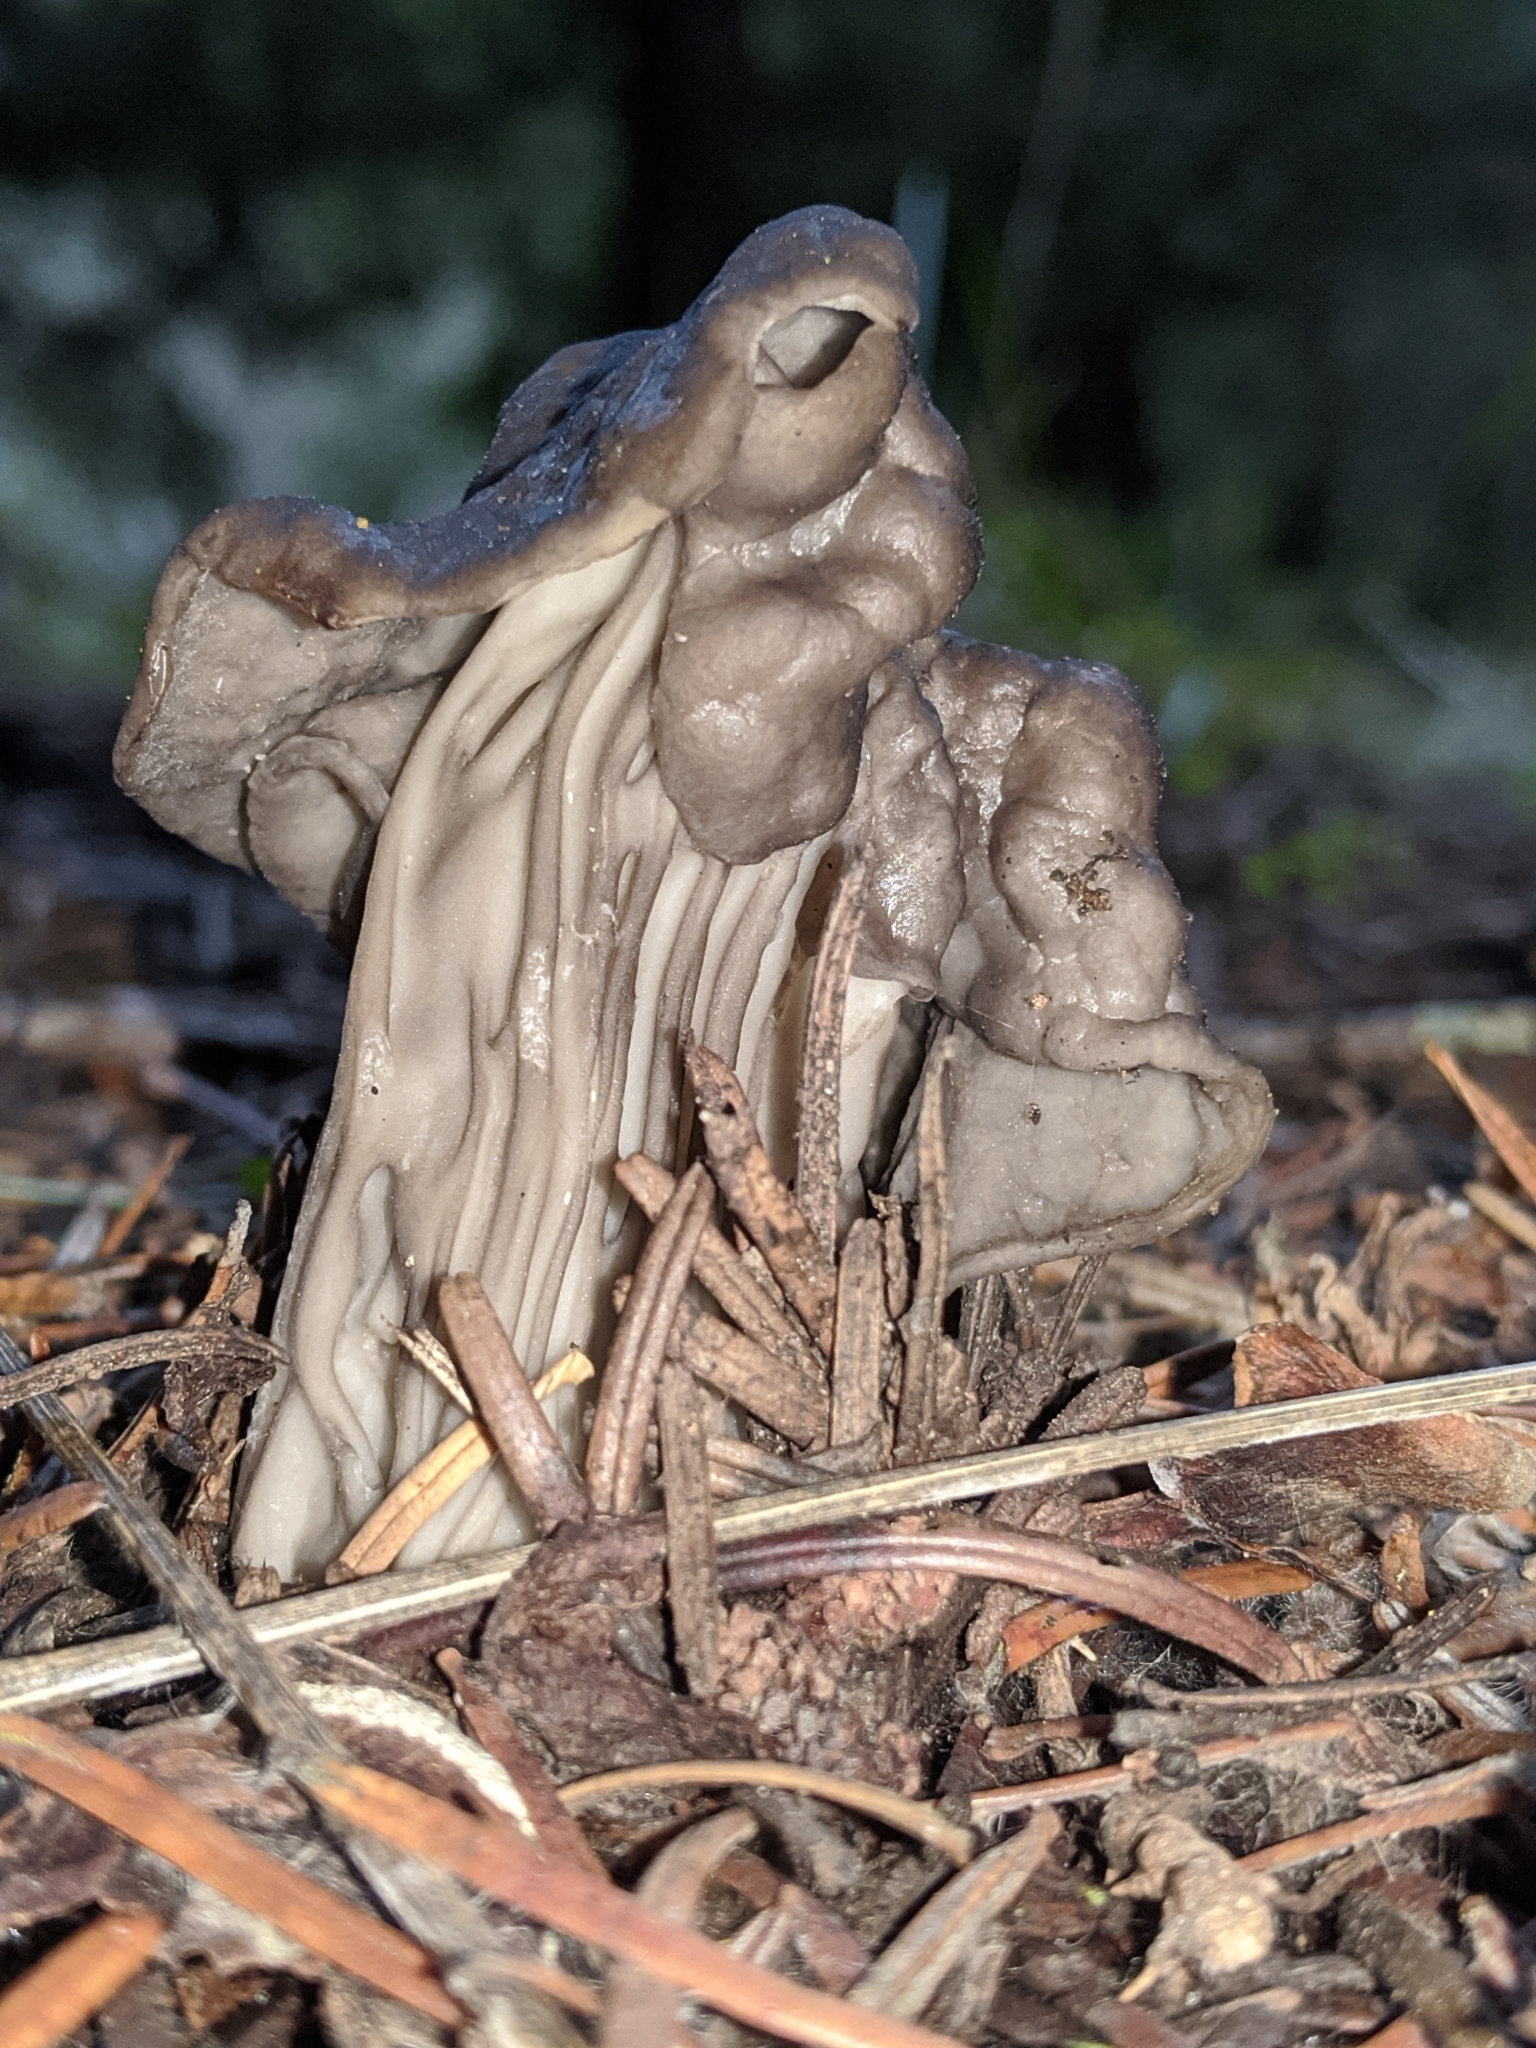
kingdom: Fungi
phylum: Ascomycota
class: Pezizomycetes
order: Pezizales
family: Helvellaceae
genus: Helvella
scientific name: Helvella vespertina
